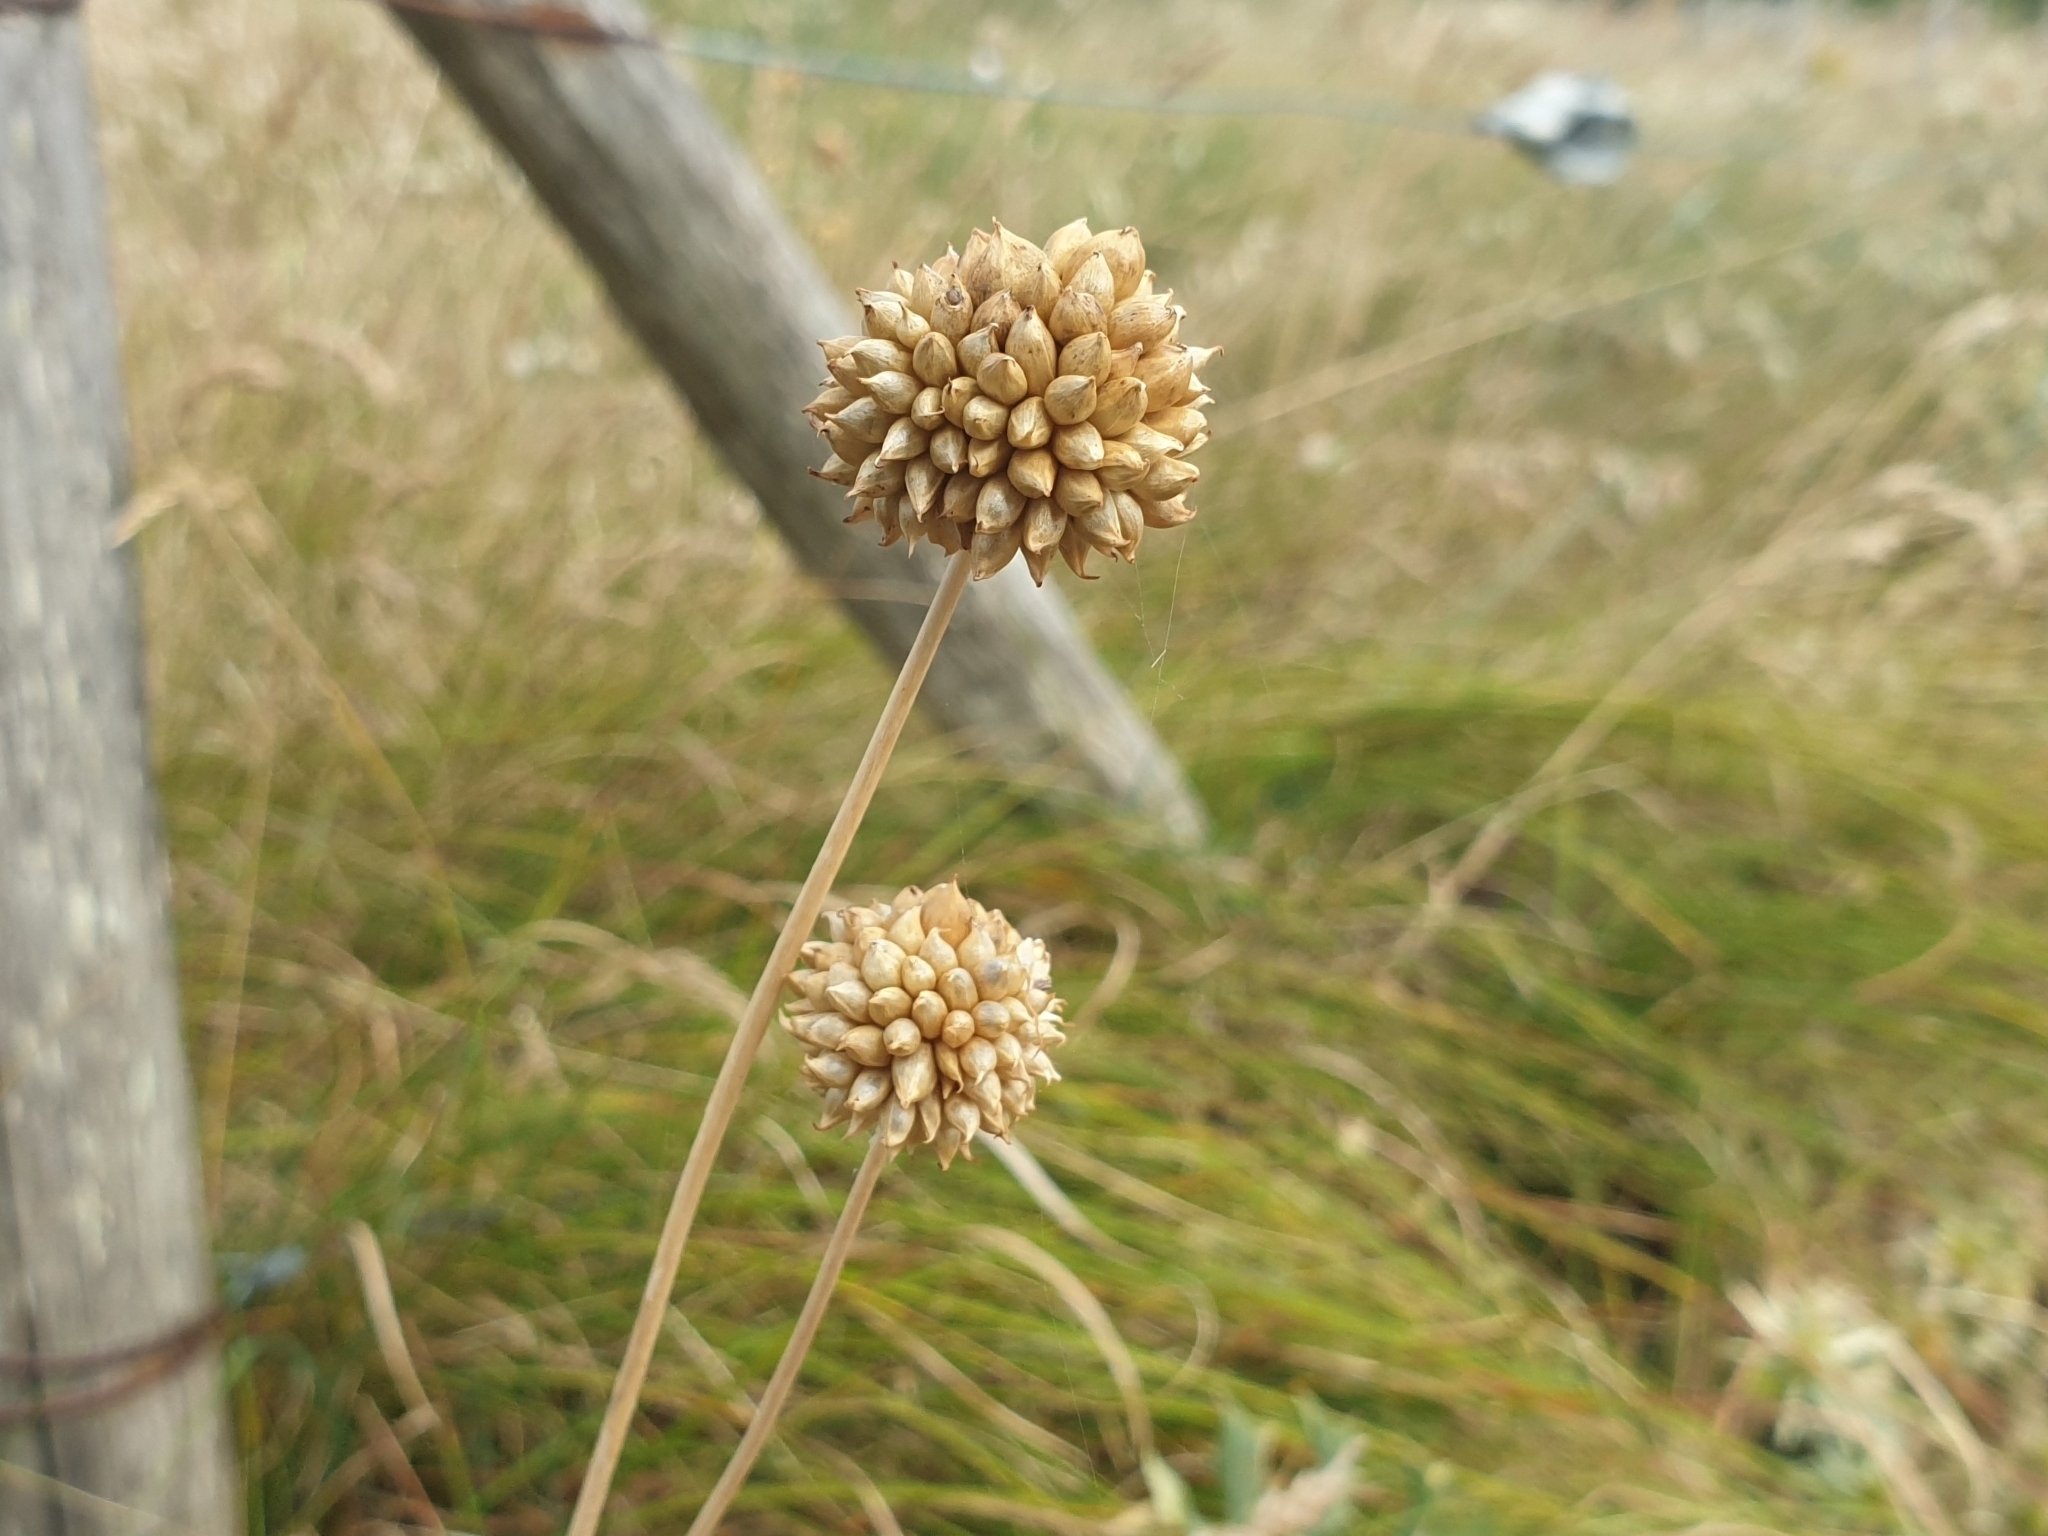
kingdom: Plantae
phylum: Tracheophyta
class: Liliopsida
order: Asparagales
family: Amaryllidaceae
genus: Allium
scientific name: Allium vineale
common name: Crow garlic
